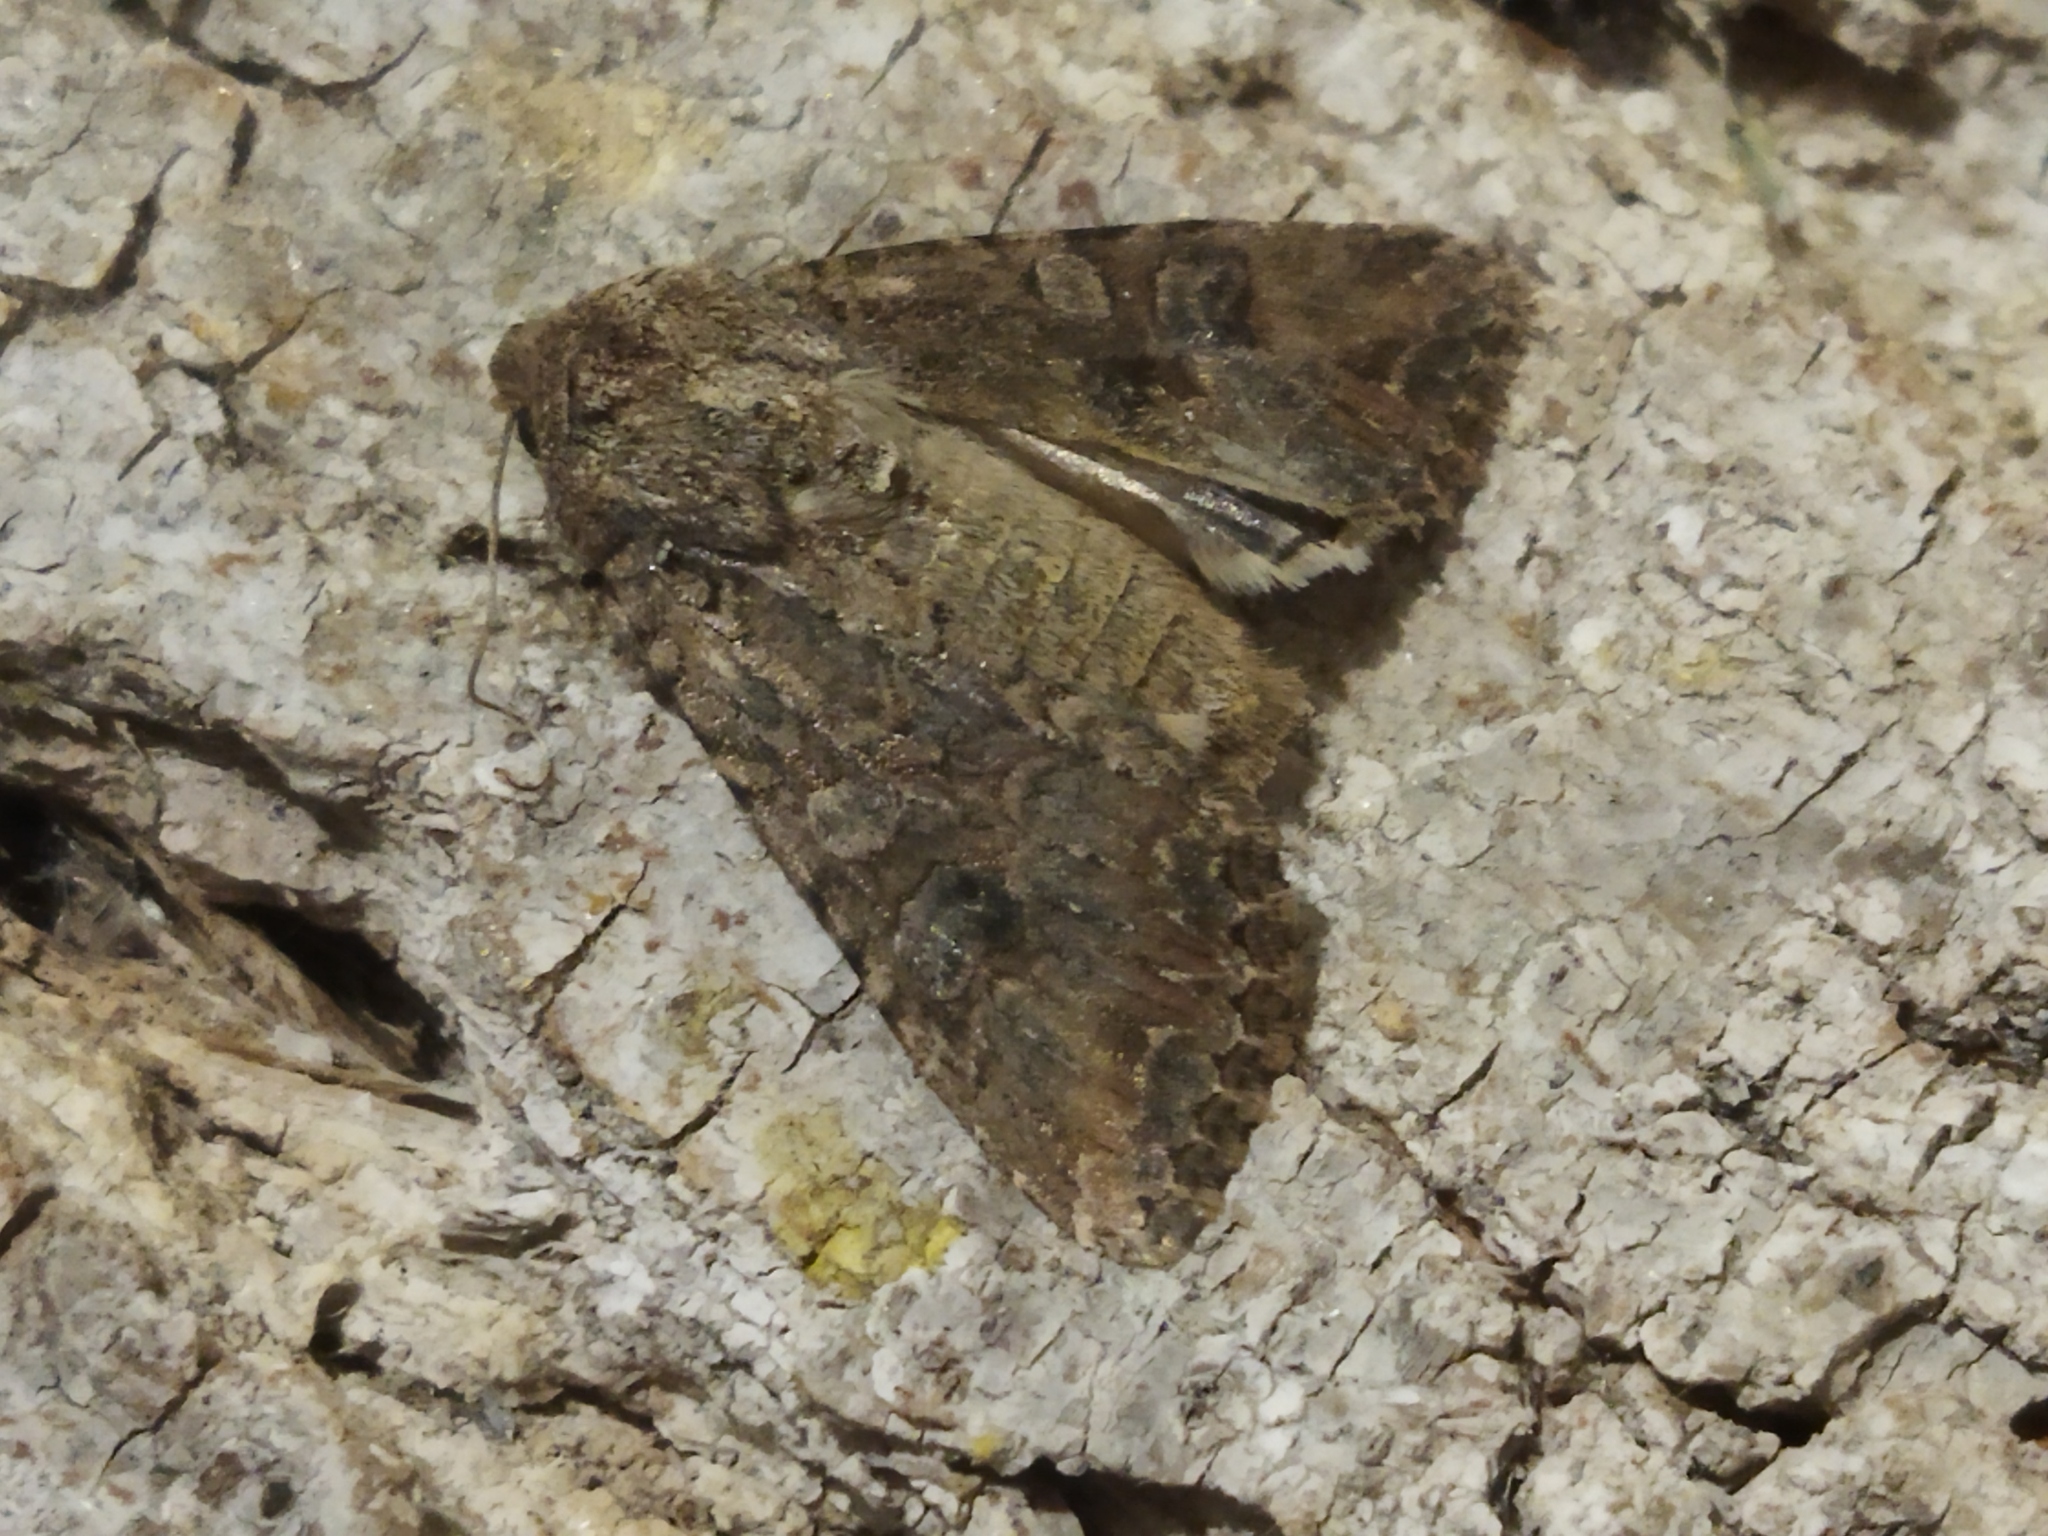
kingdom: Animalia
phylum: Arthropoda
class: Insecta
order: Lepidoptera
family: Noctuidae
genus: Anarta
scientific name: Anarta trifolii
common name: Clover cutworm moth
